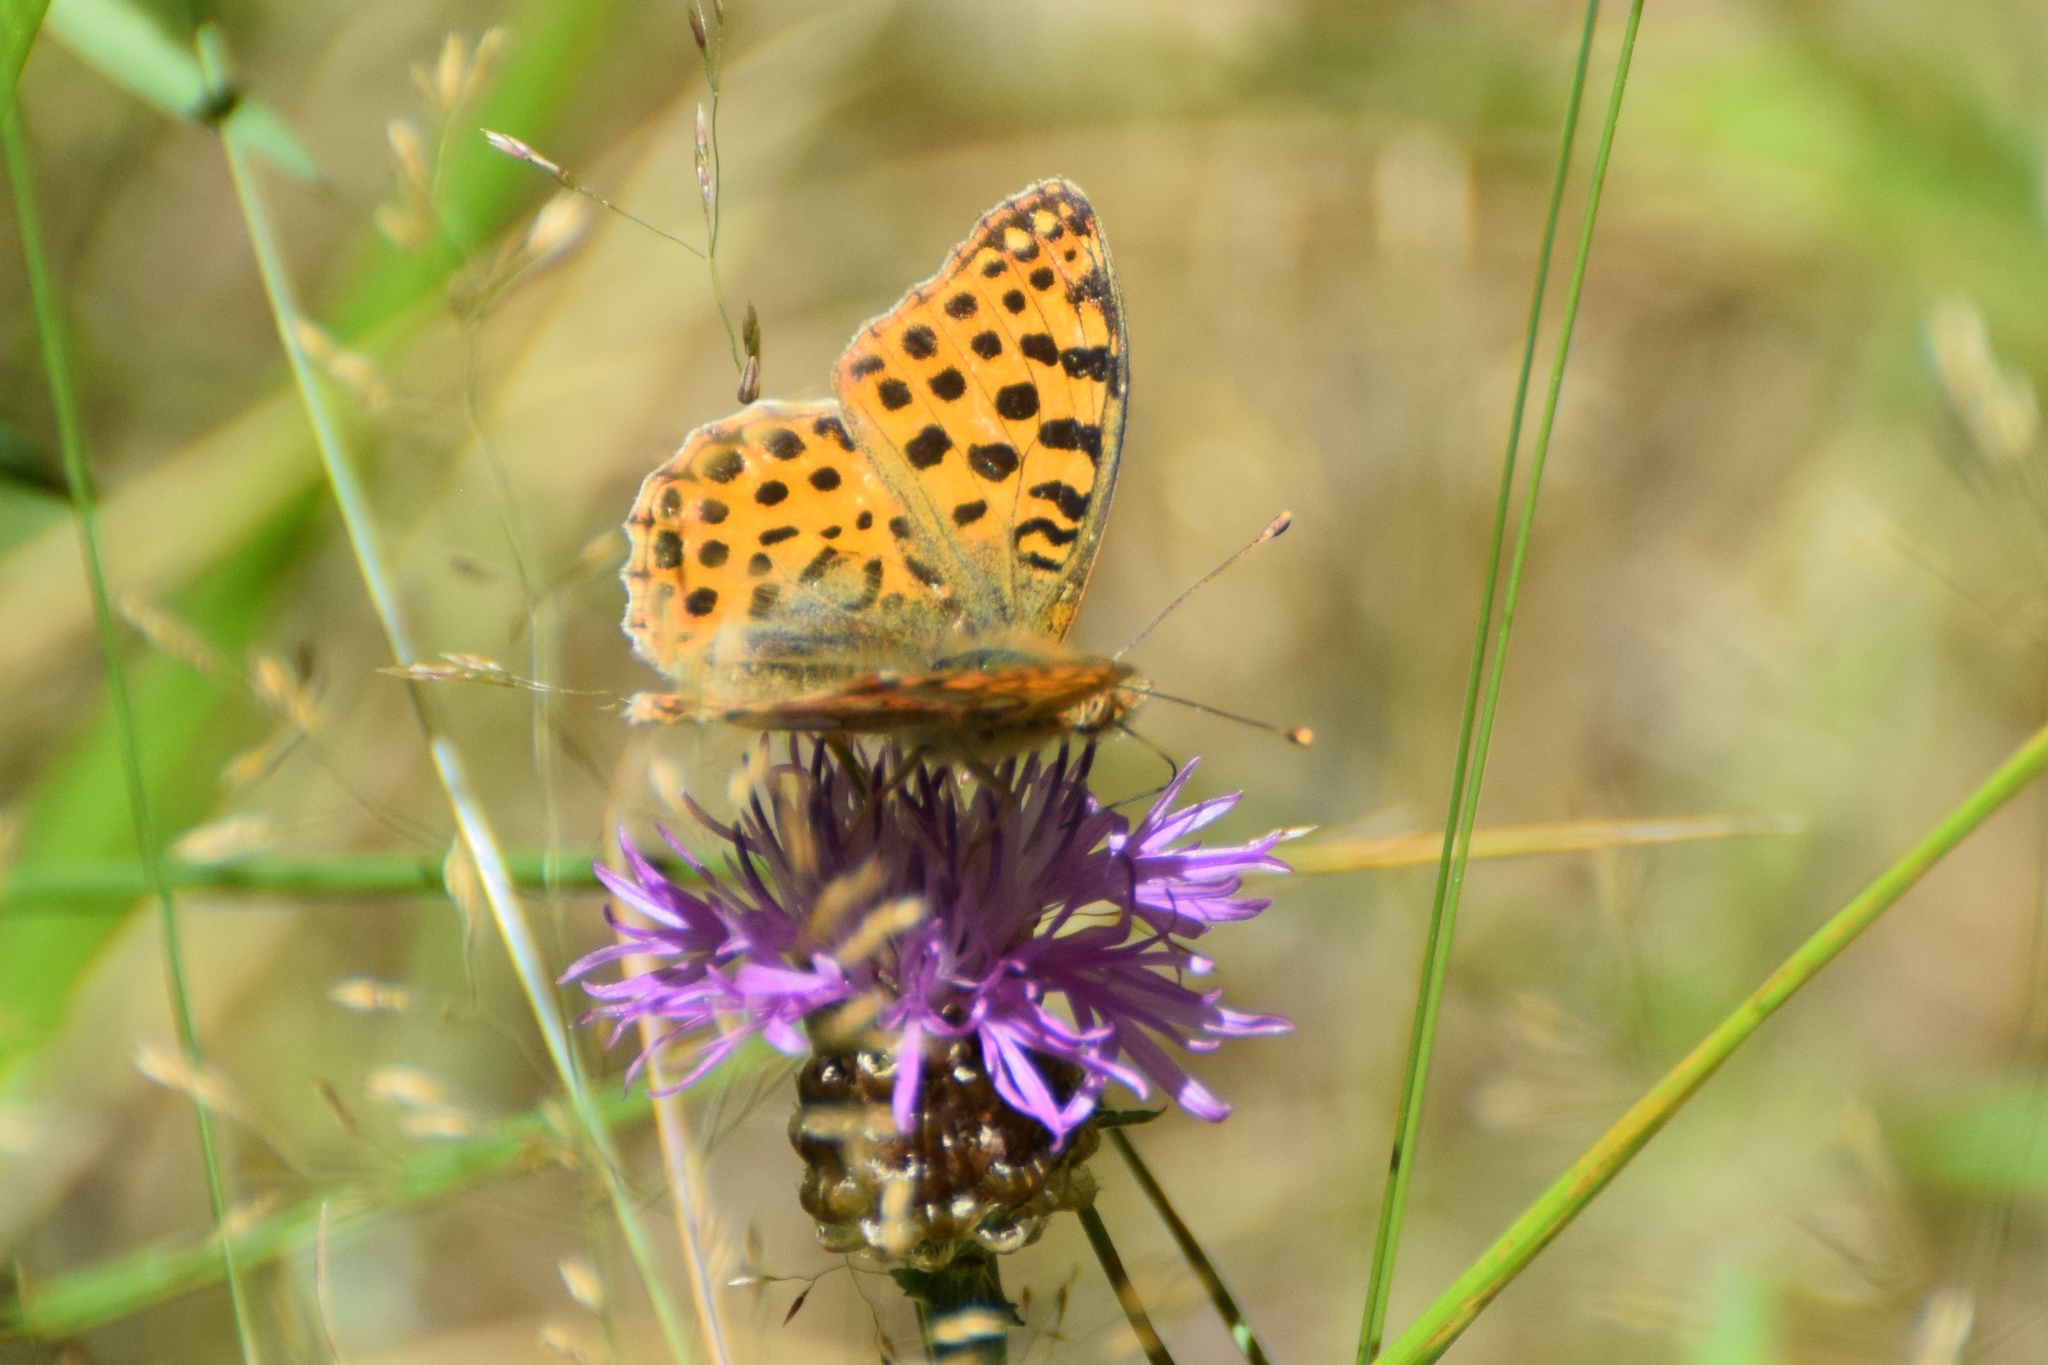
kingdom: Animalia
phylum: Arthropoda
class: Insecta
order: Lepidoptera
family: Nymphalidae
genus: Issoria
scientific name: Issoria lathonia
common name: Queen of spain fritillary
